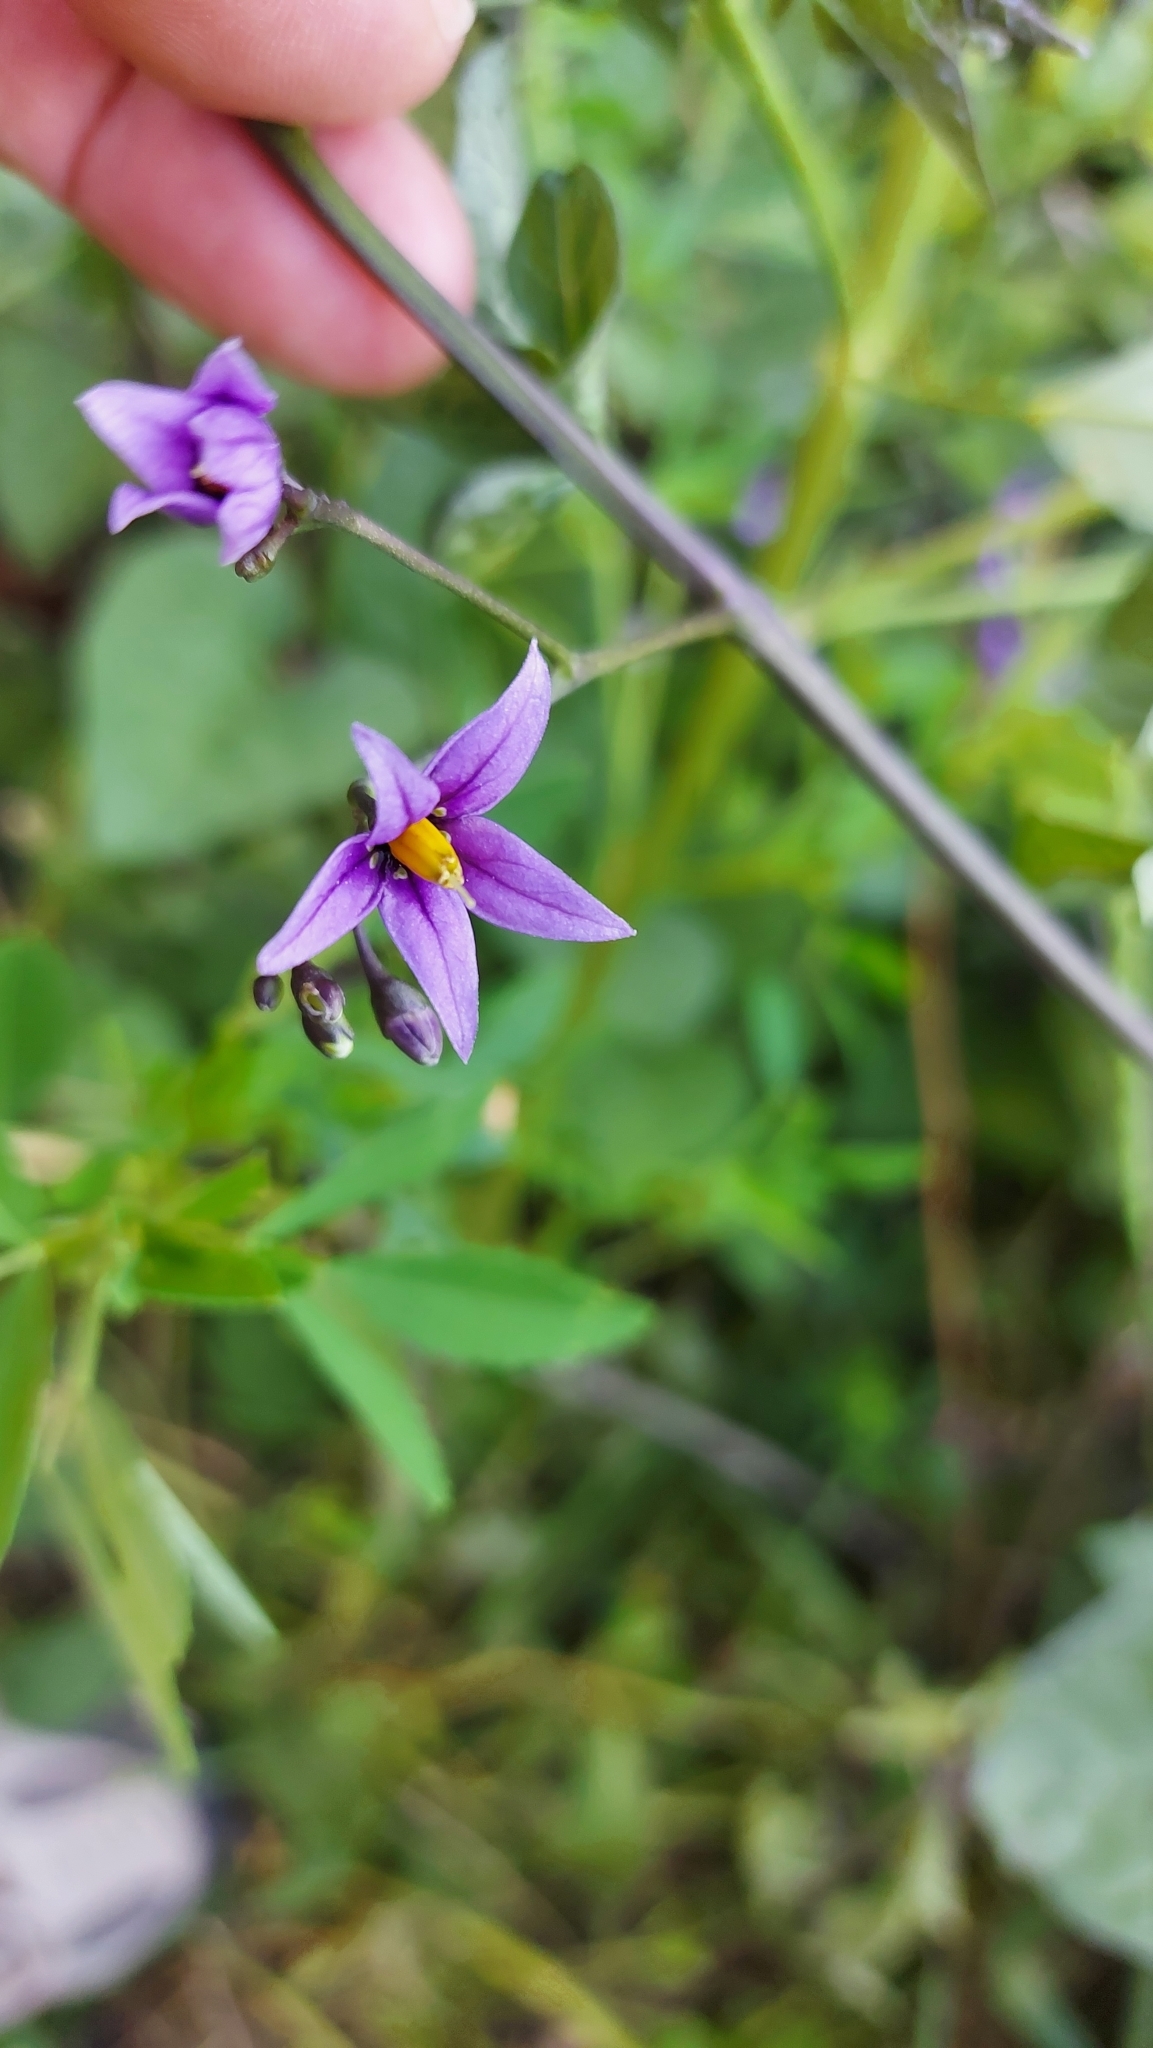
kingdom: Plantae
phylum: Tracheophyta
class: Magnoliopsida
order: Solanales
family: Solanaceae
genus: Solanum
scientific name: Solanum dulcamara
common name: Climbing nightshade
